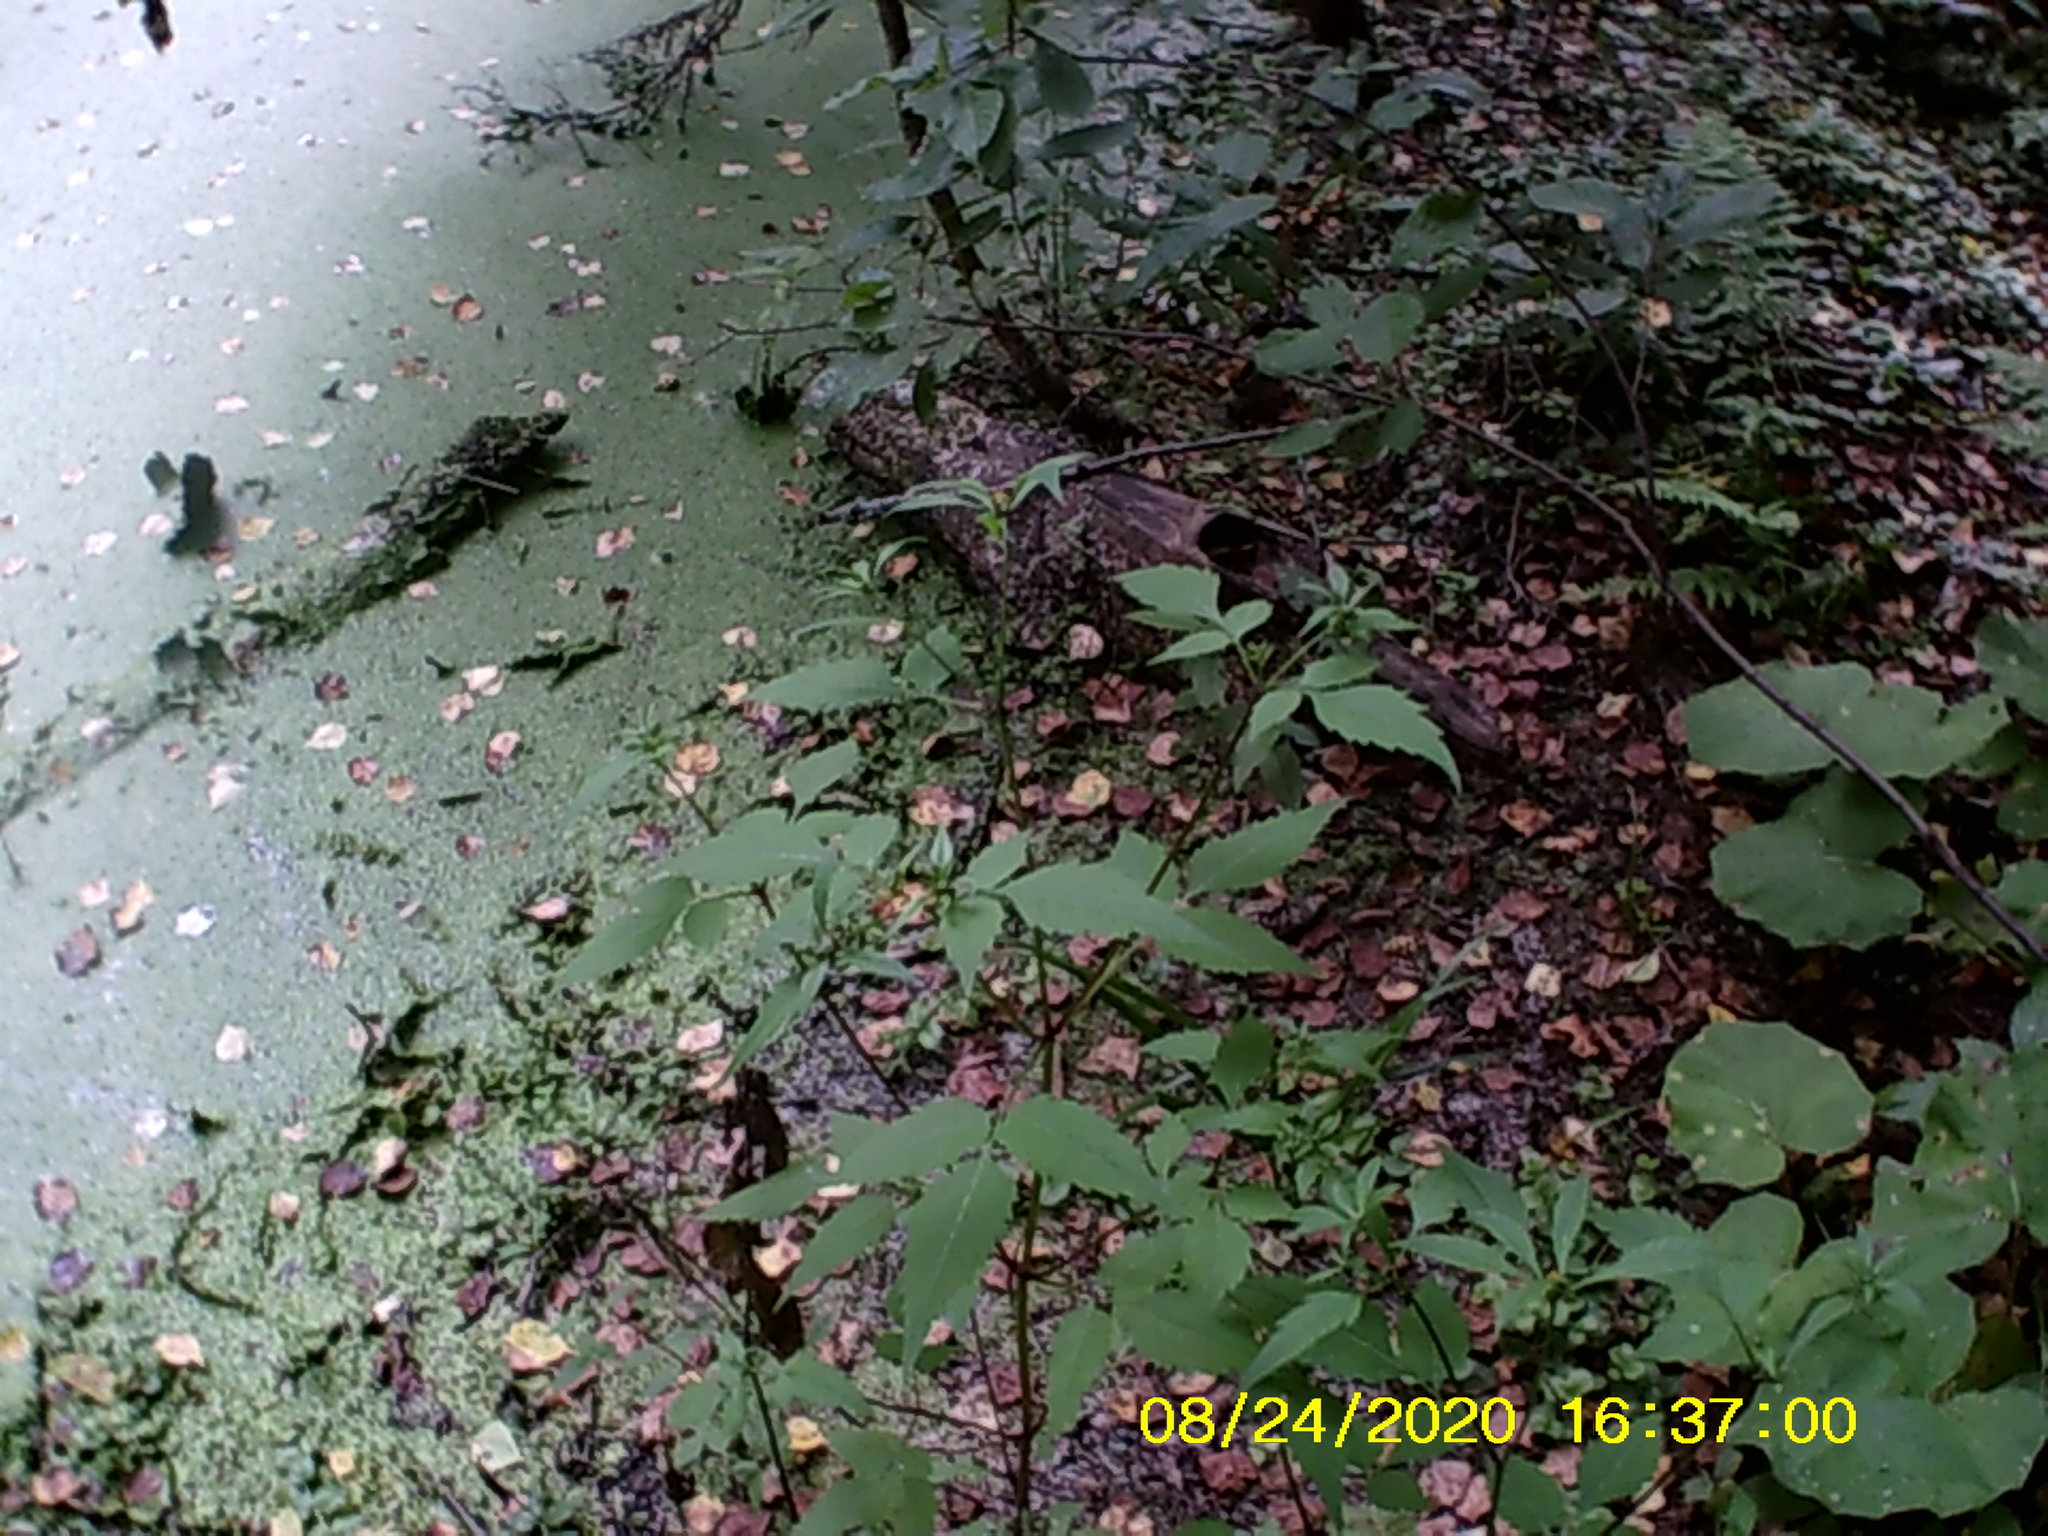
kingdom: Plantae
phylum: Tracheophyta
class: Magnoliopsida
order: Asterales
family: Asteraceae
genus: Bidens
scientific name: Bidens frondosa
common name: Beggarticks
